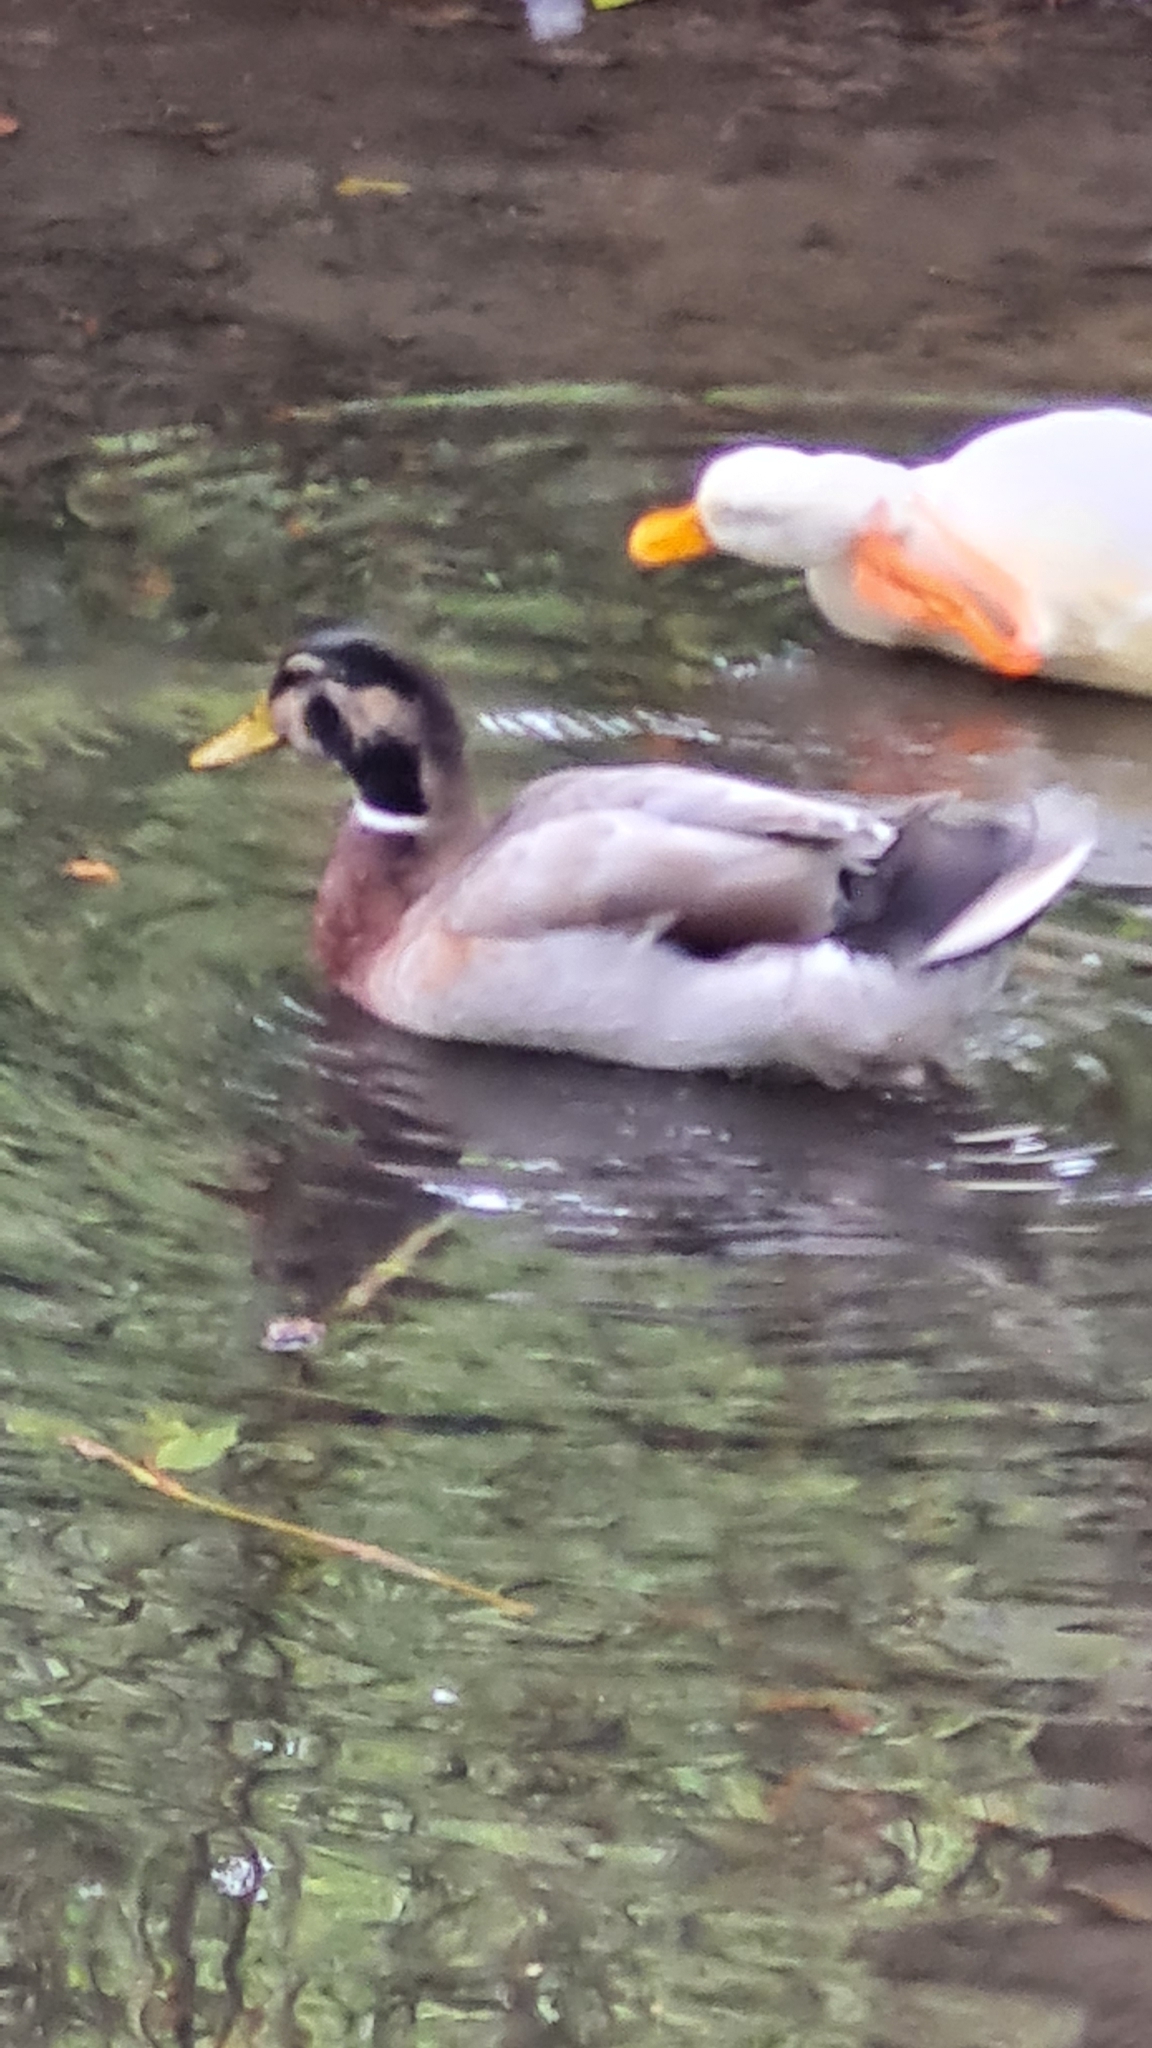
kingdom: Animalia
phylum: Chordata
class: Aves
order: Anseriformes
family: Anatidae
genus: Anas
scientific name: Anas platyrhynchos
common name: Mallard
